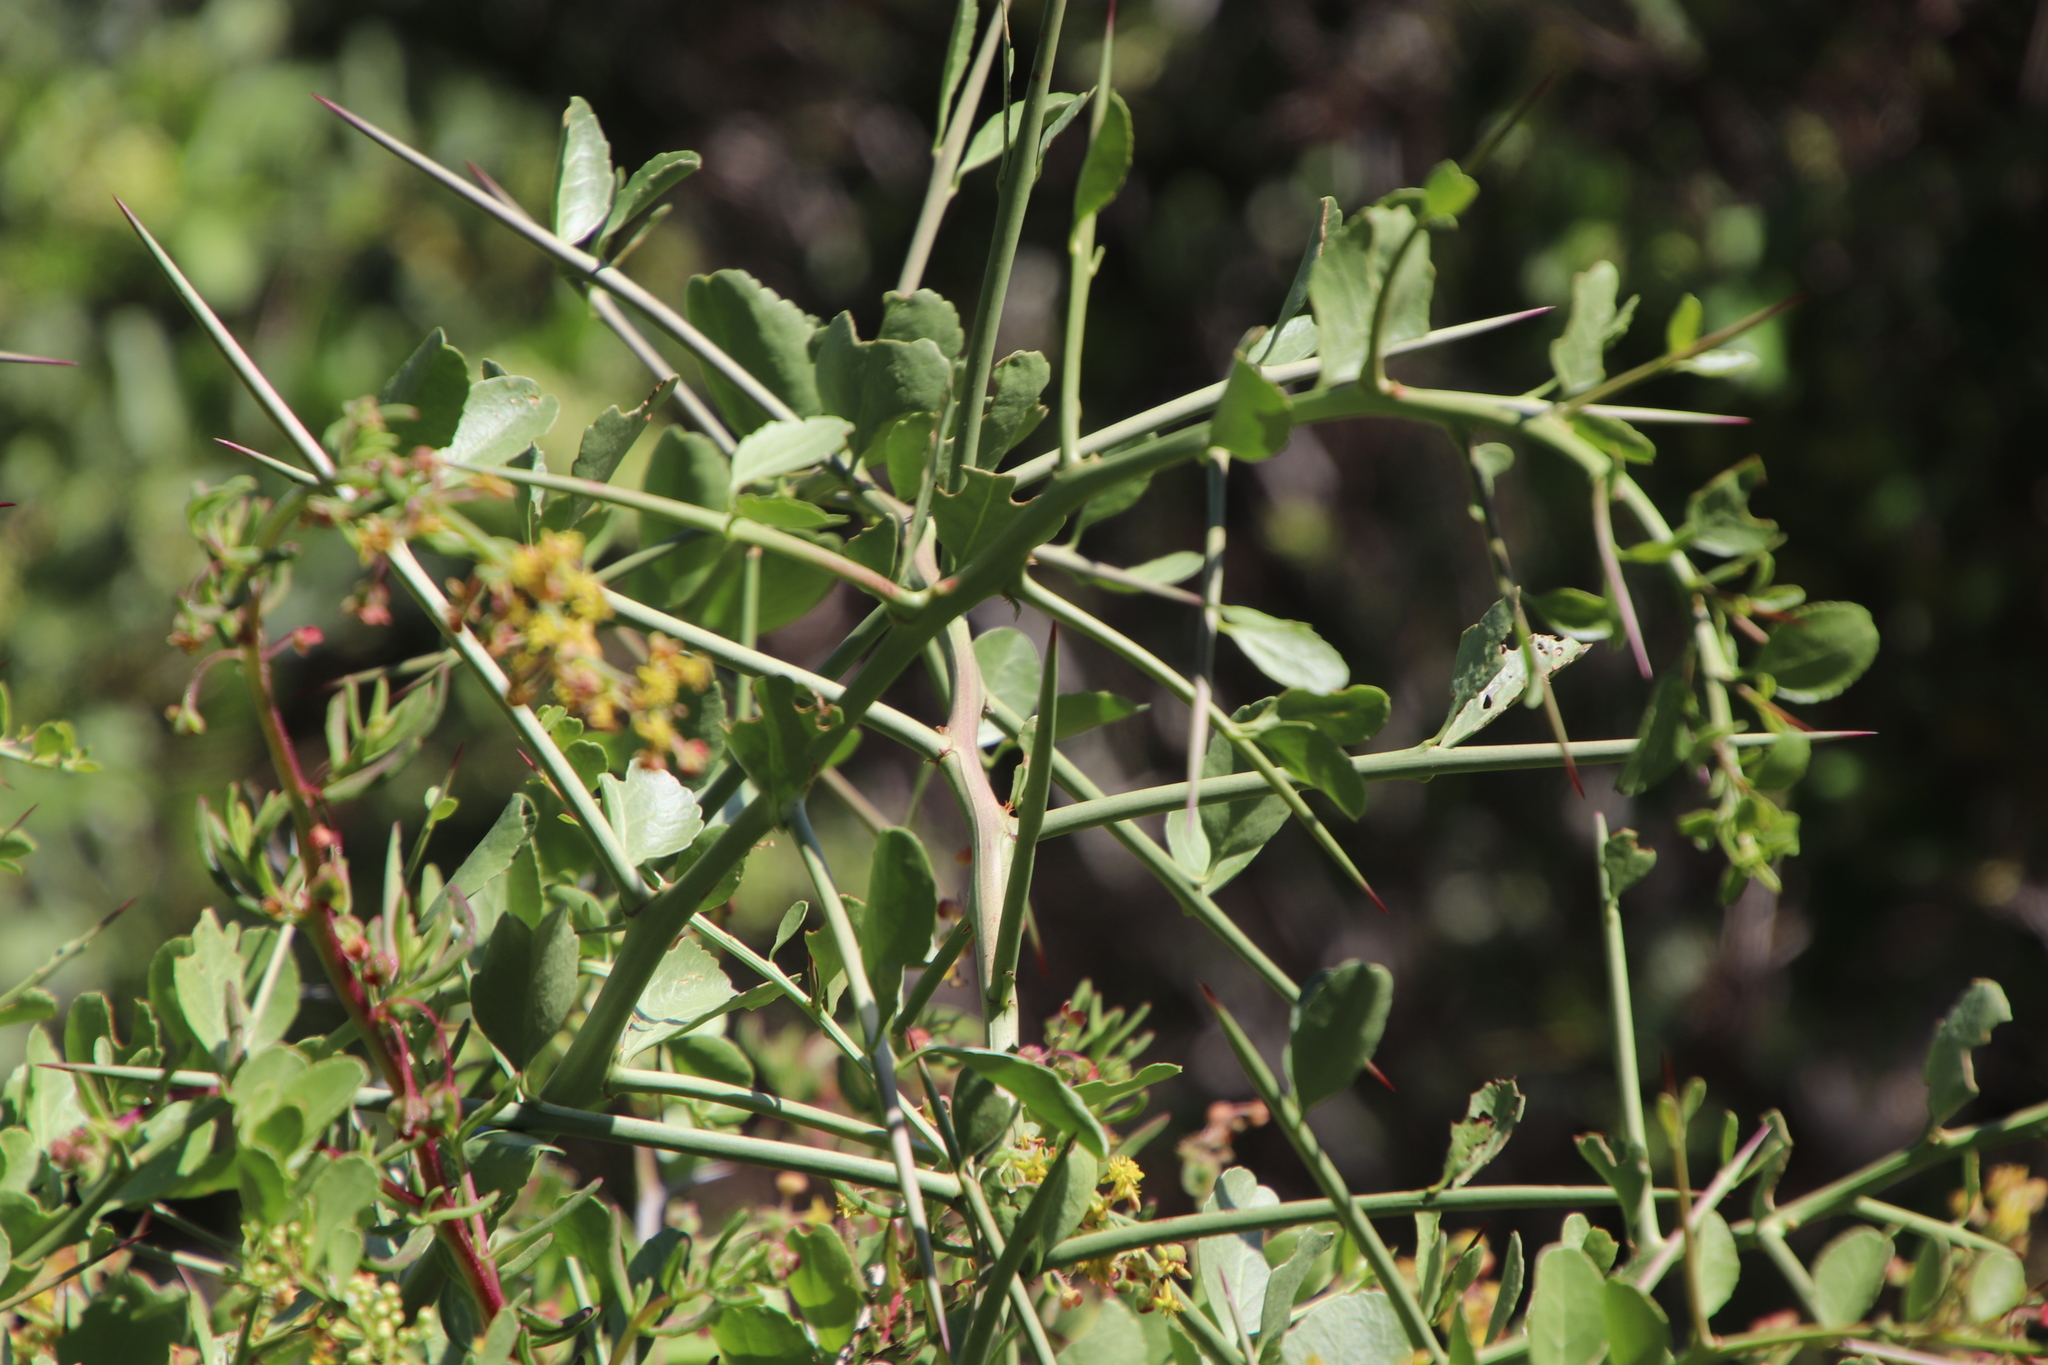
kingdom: Plantae
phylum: Tracheophyta
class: Magnoliopsida
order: Celastrales
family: Celastraceae
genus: Gymnosporia
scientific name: Gymnosporia buxifolia
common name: Common spike-thorn
